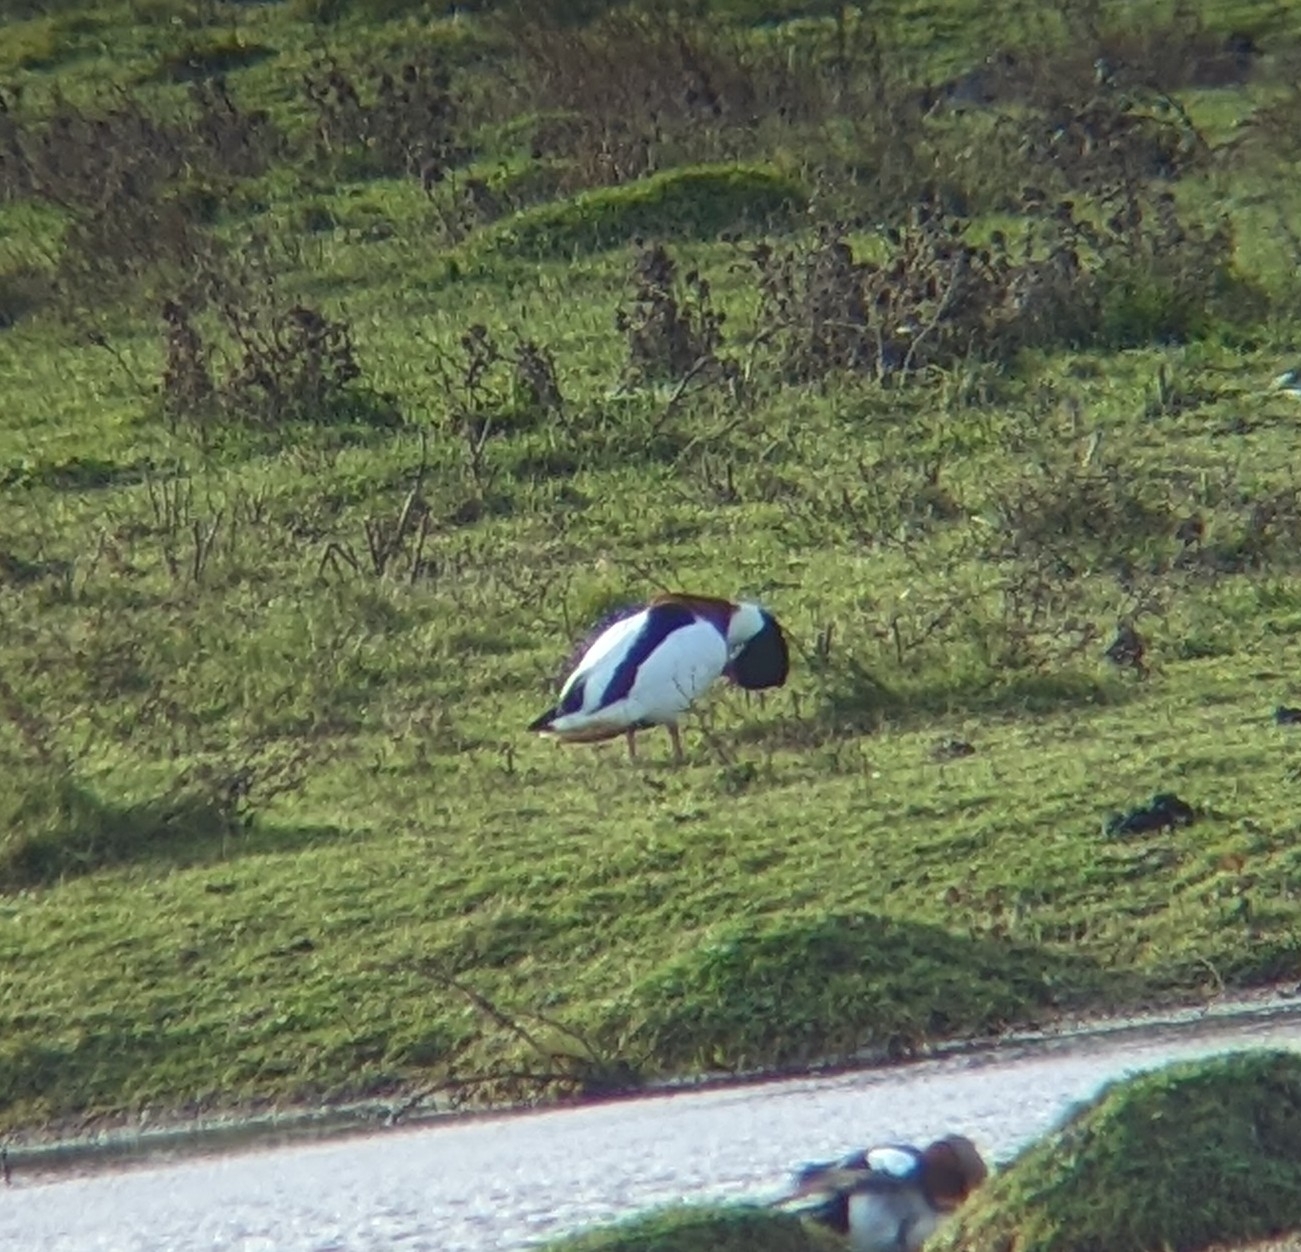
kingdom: Animalia
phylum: Chordata
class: Aves
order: Anseriformes
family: Anatidae
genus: Tadorna
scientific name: Tadorna tadorna
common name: Common shelduck
